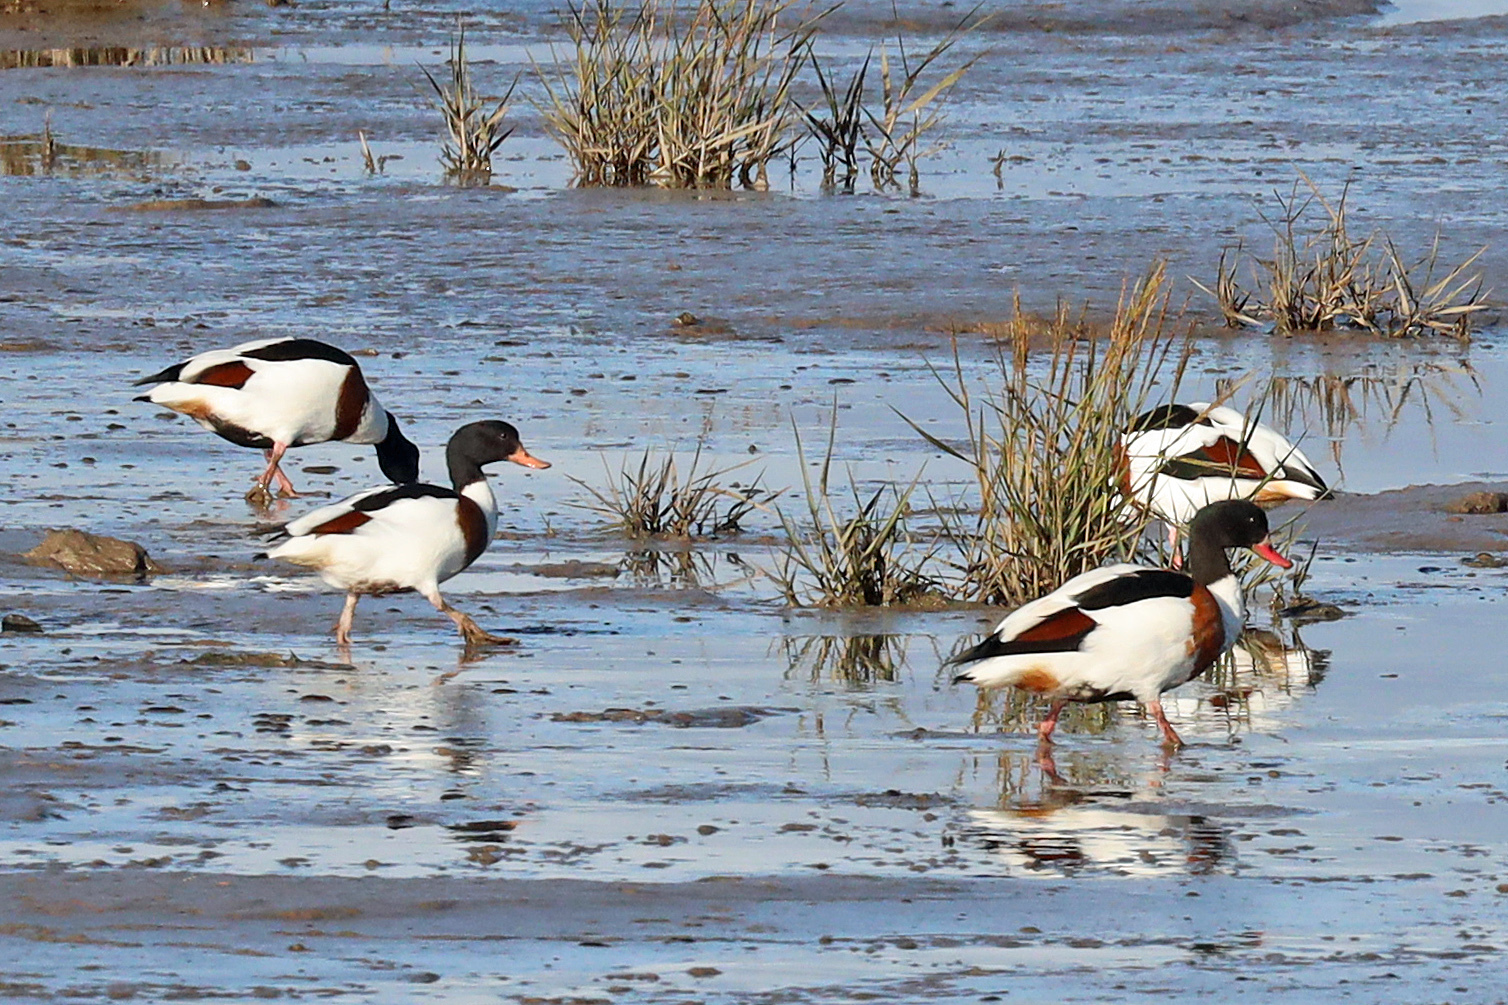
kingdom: Animalia
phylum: Chordata
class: Aves
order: Anseriformes
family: Anatidae
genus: Tadorna
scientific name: Tadorna tadorna
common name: Common shelduck
